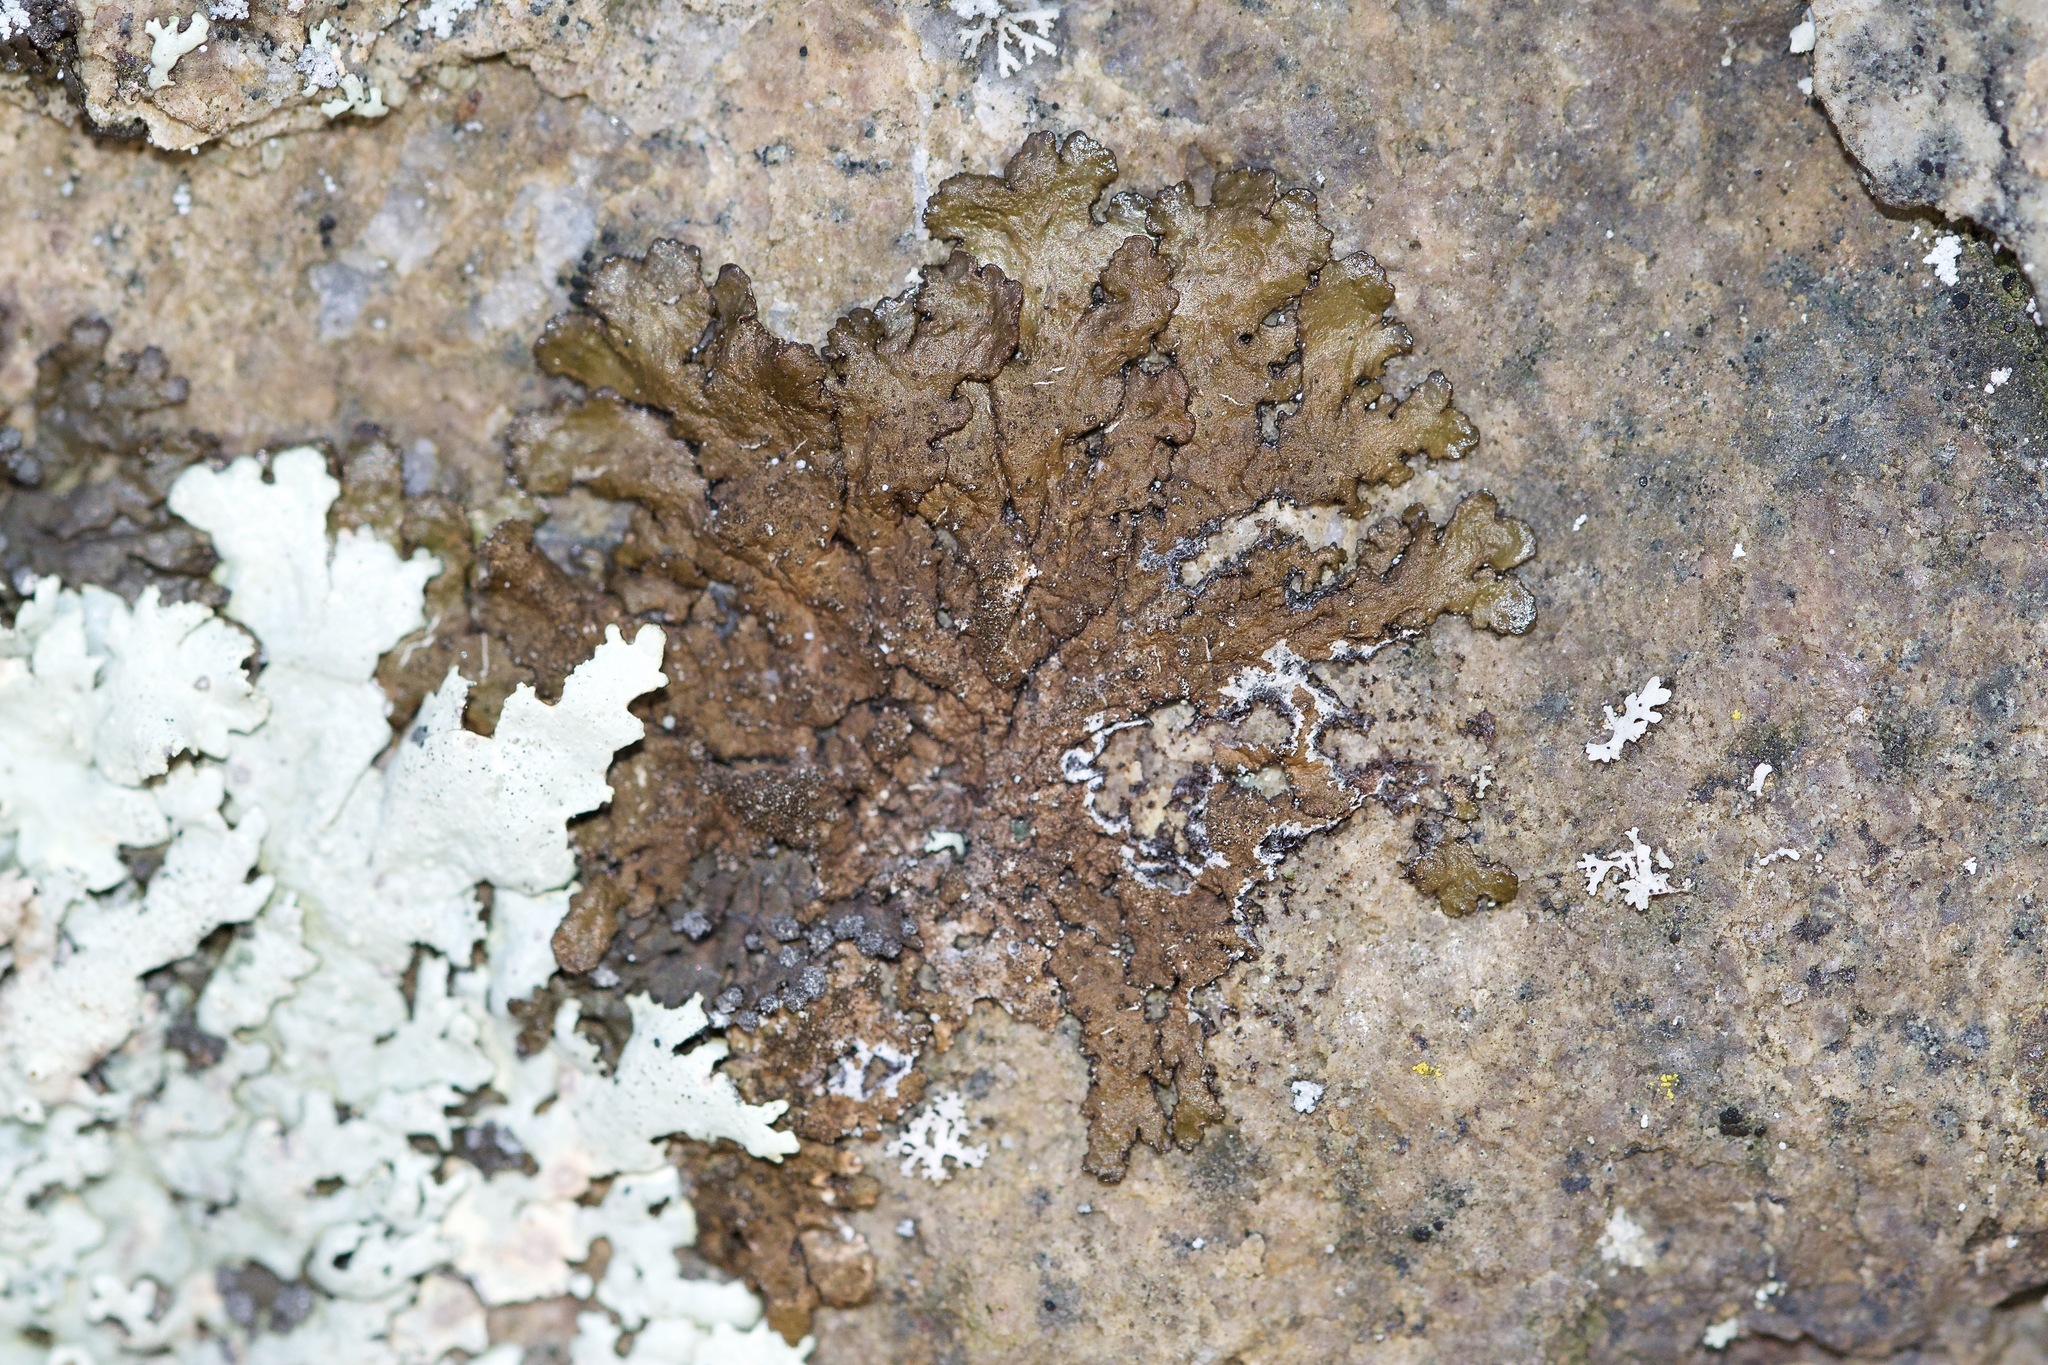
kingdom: Fungi
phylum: Ascomycota
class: Lecanoromycetes
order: Lecanorales
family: Parmeliaceae
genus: Melanelixia
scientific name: Melanelixia subaurifera
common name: Abraded camouflage lichen
